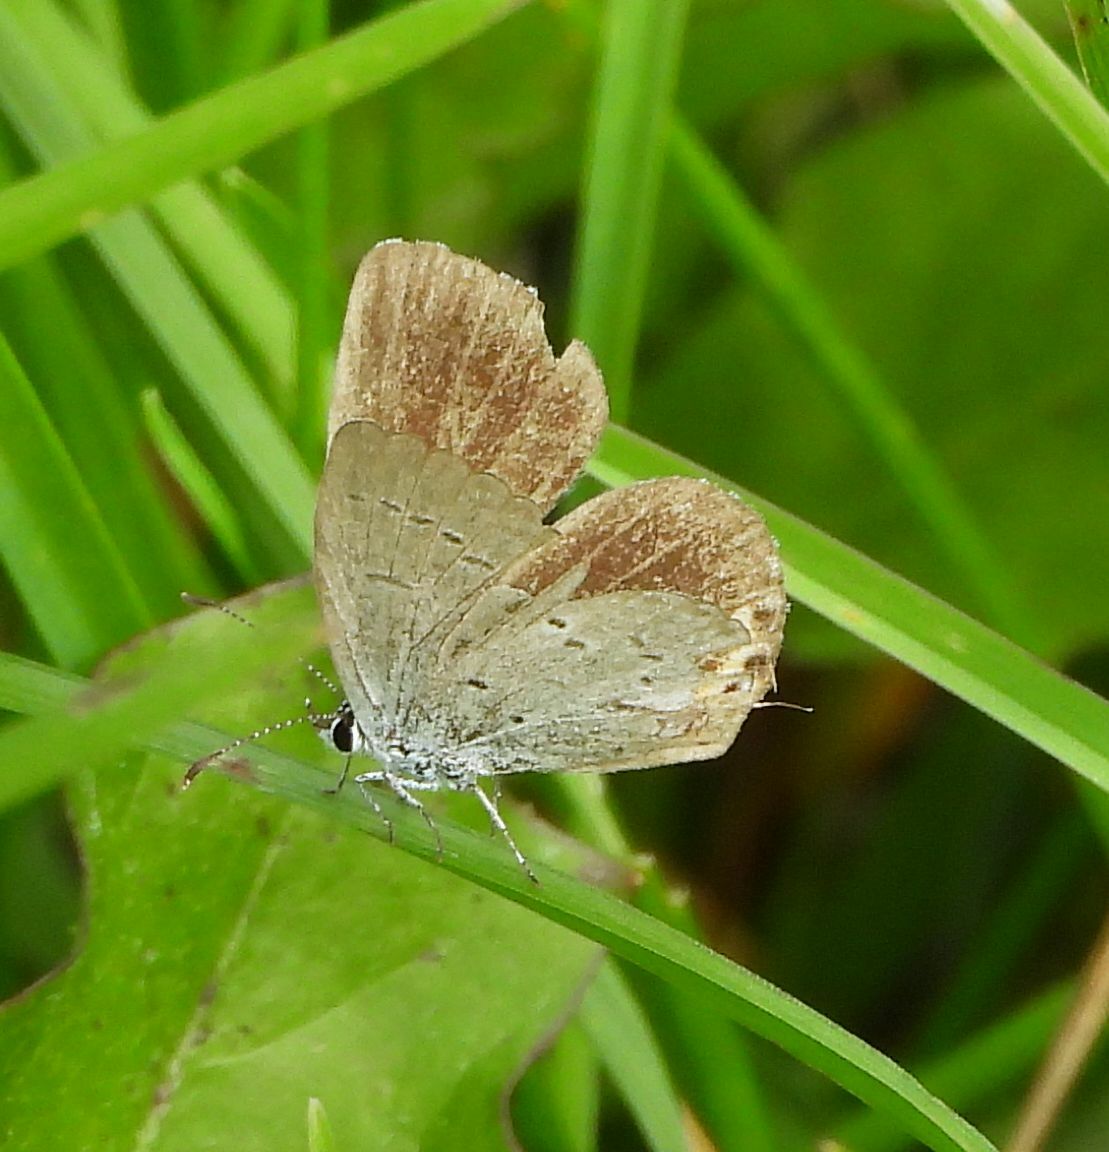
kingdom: Animalia
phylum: Arthropoda
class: Insecta
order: Lepidoptera
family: Lycaenidae
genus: Elkalyce
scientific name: Elkalyce comyntas
